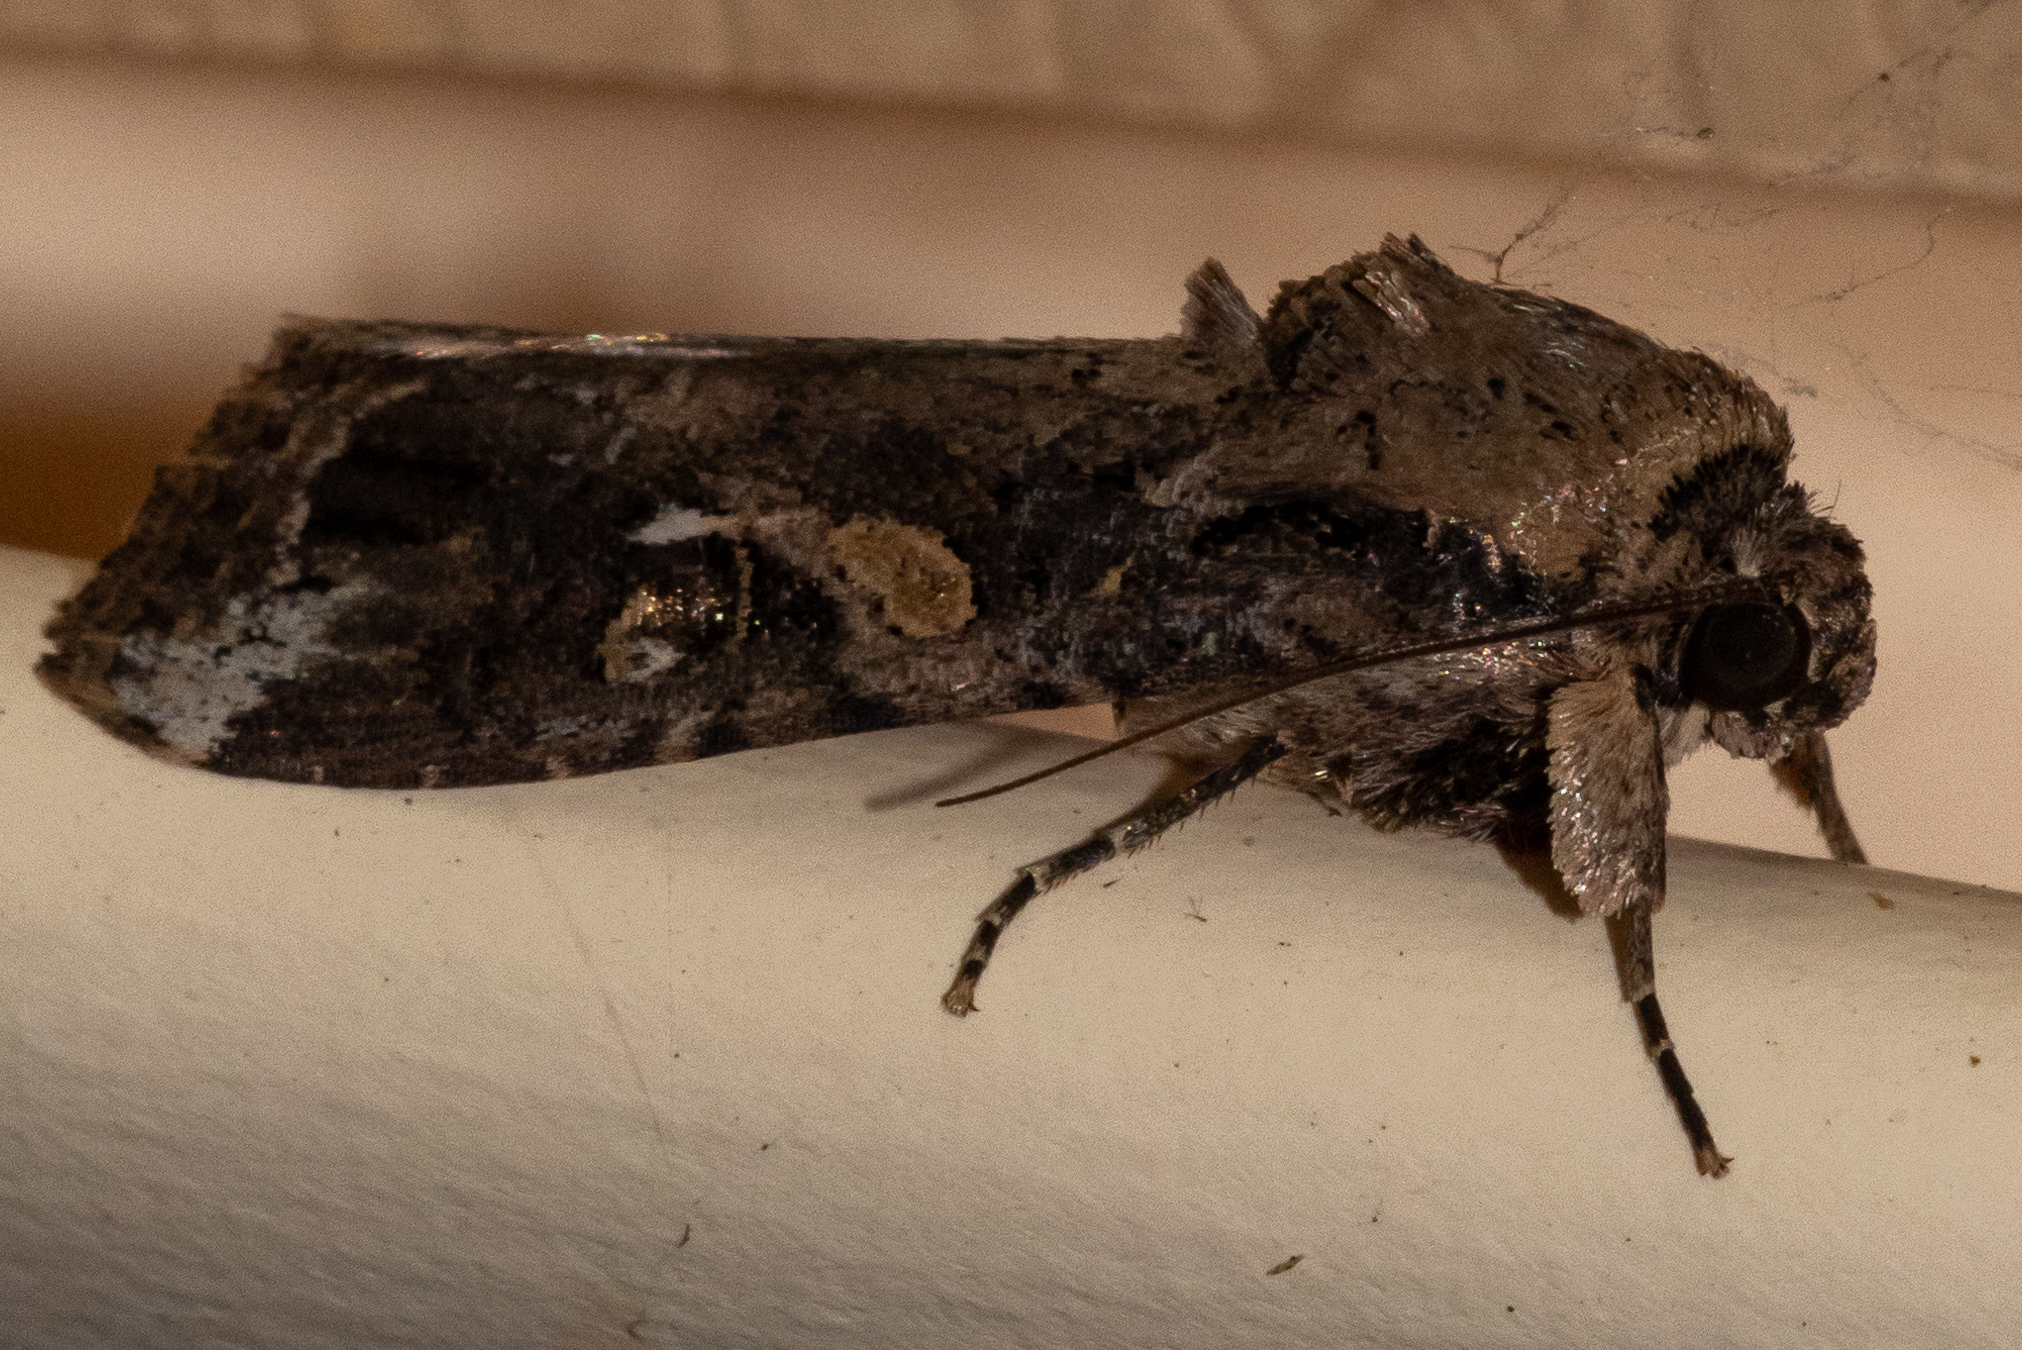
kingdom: Animalia
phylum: Arthropoda
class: Insecta
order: Lepidoptera
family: Noctuidae
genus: Spodoptera
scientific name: Spodoptera frugiperda
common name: Fall armyworm
